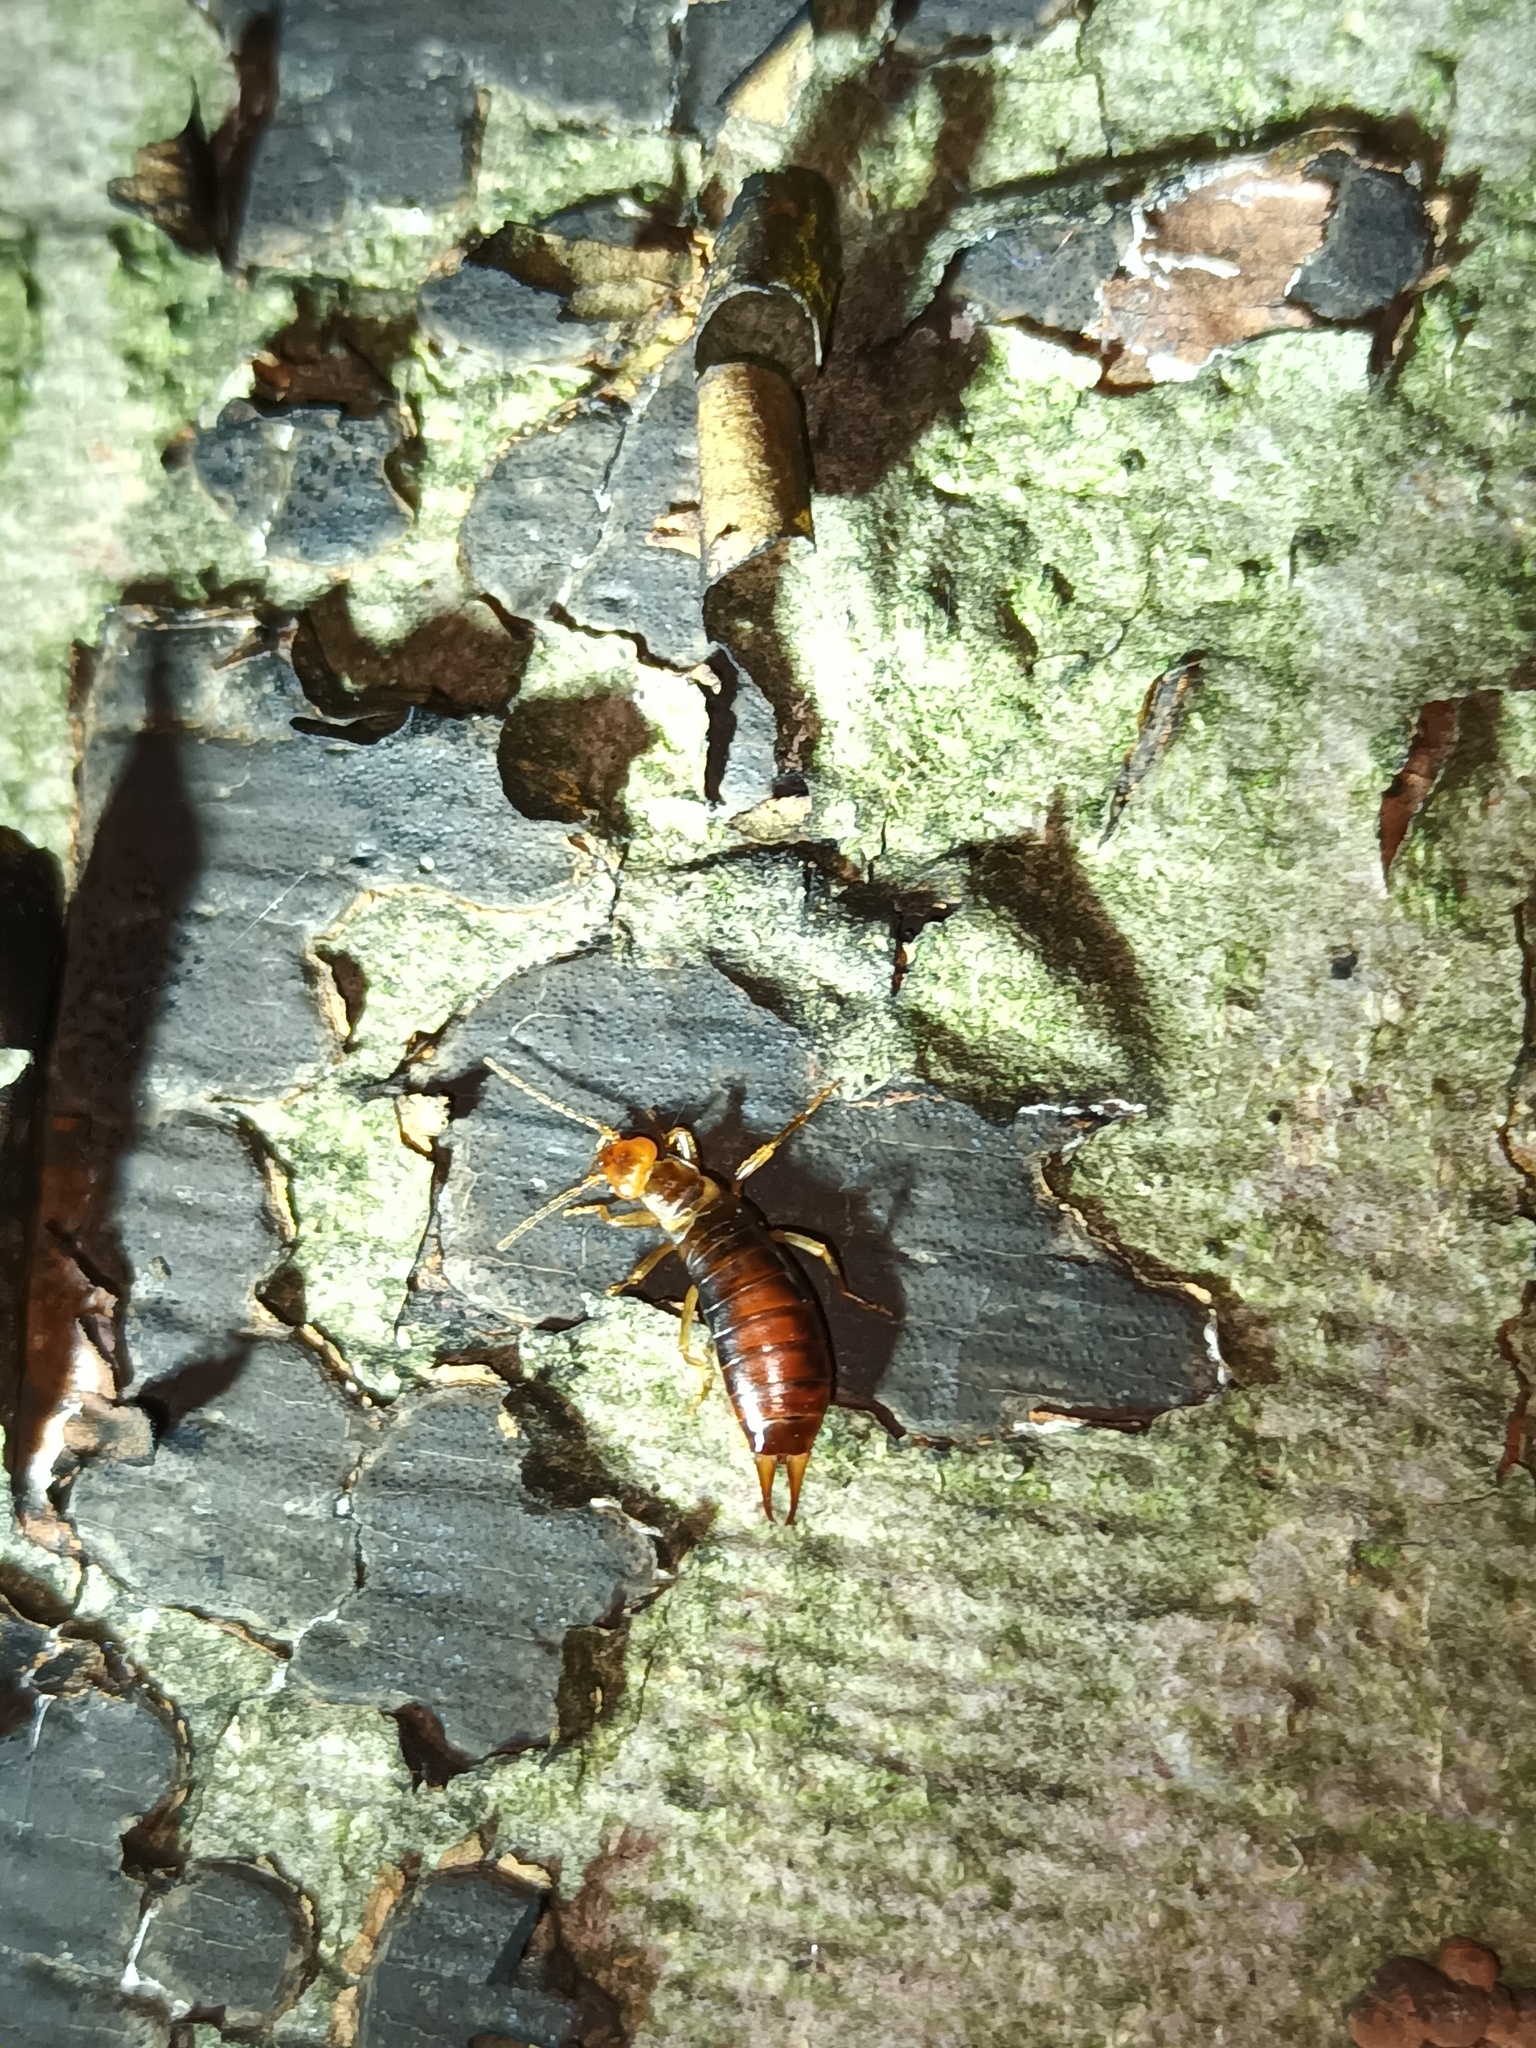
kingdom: Animalia
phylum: Arthropoda
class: Insecta
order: Dermaptera
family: Forficulidae
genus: Chelidurella
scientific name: Chelidurella acanthopygia
